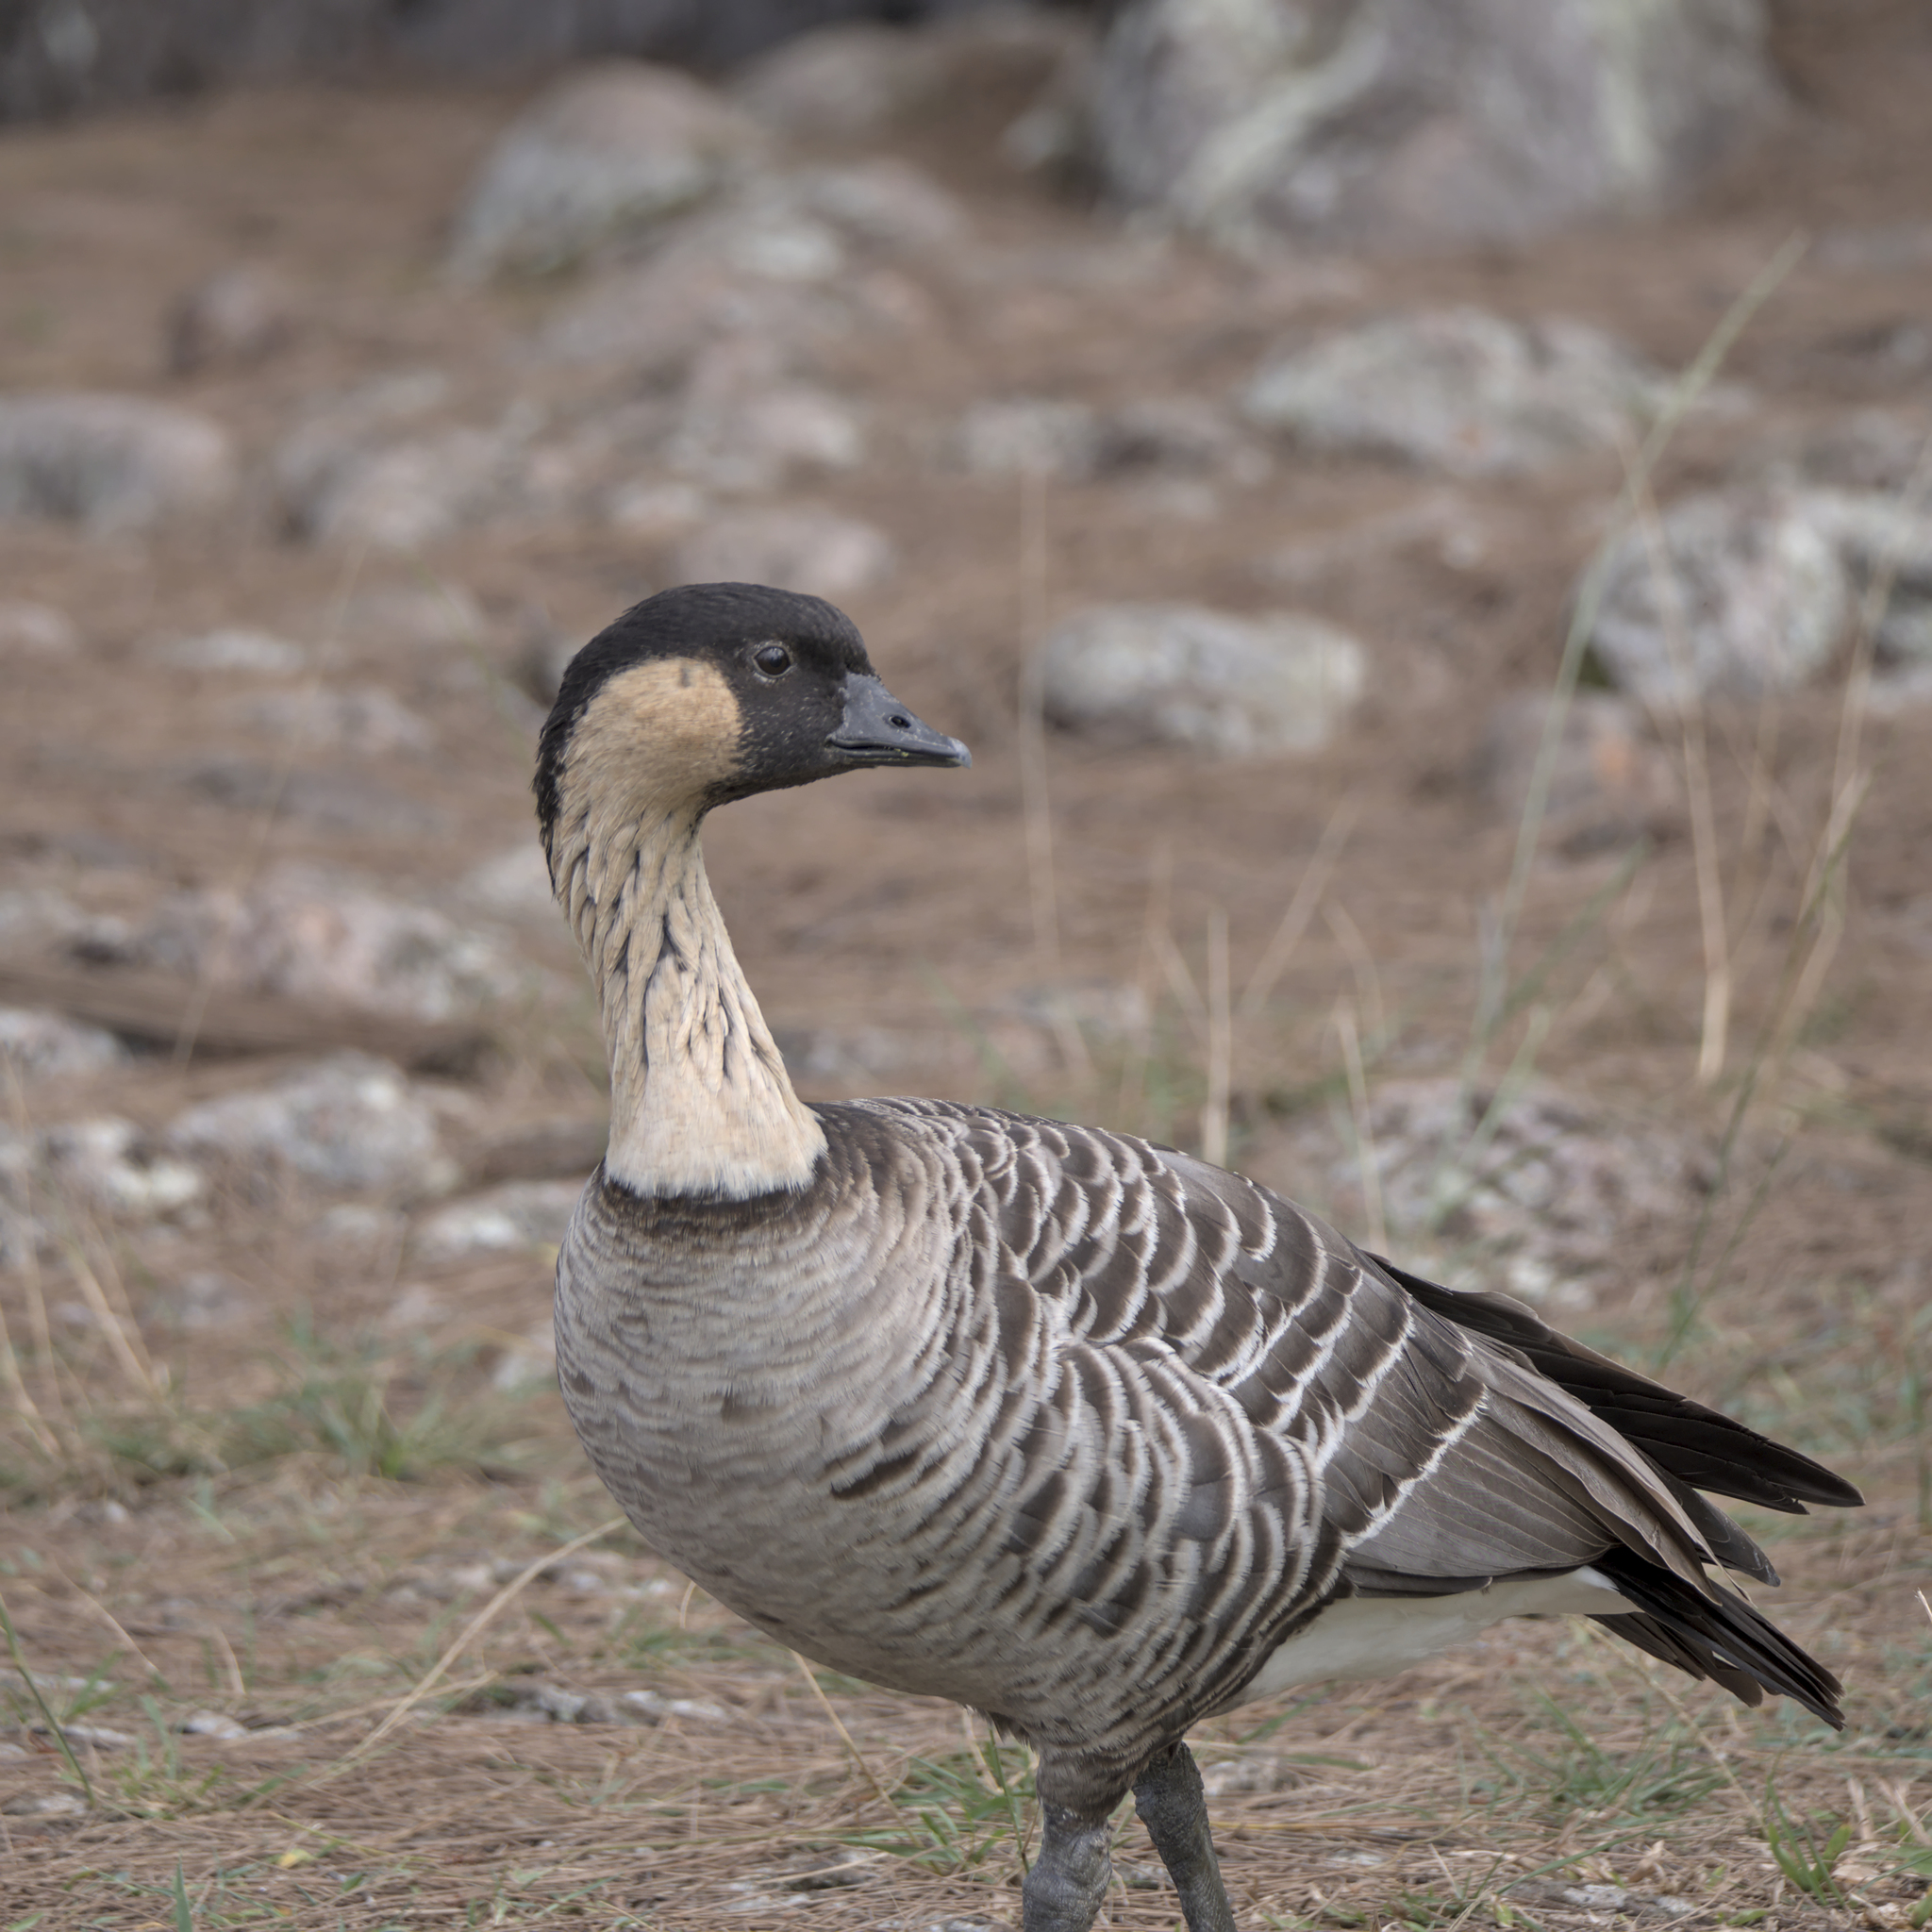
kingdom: Animalia
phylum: Chordata
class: Aves
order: Anseriformes
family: Anatidae
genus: Branta
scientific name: Branta sandvicensis
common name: Nene
